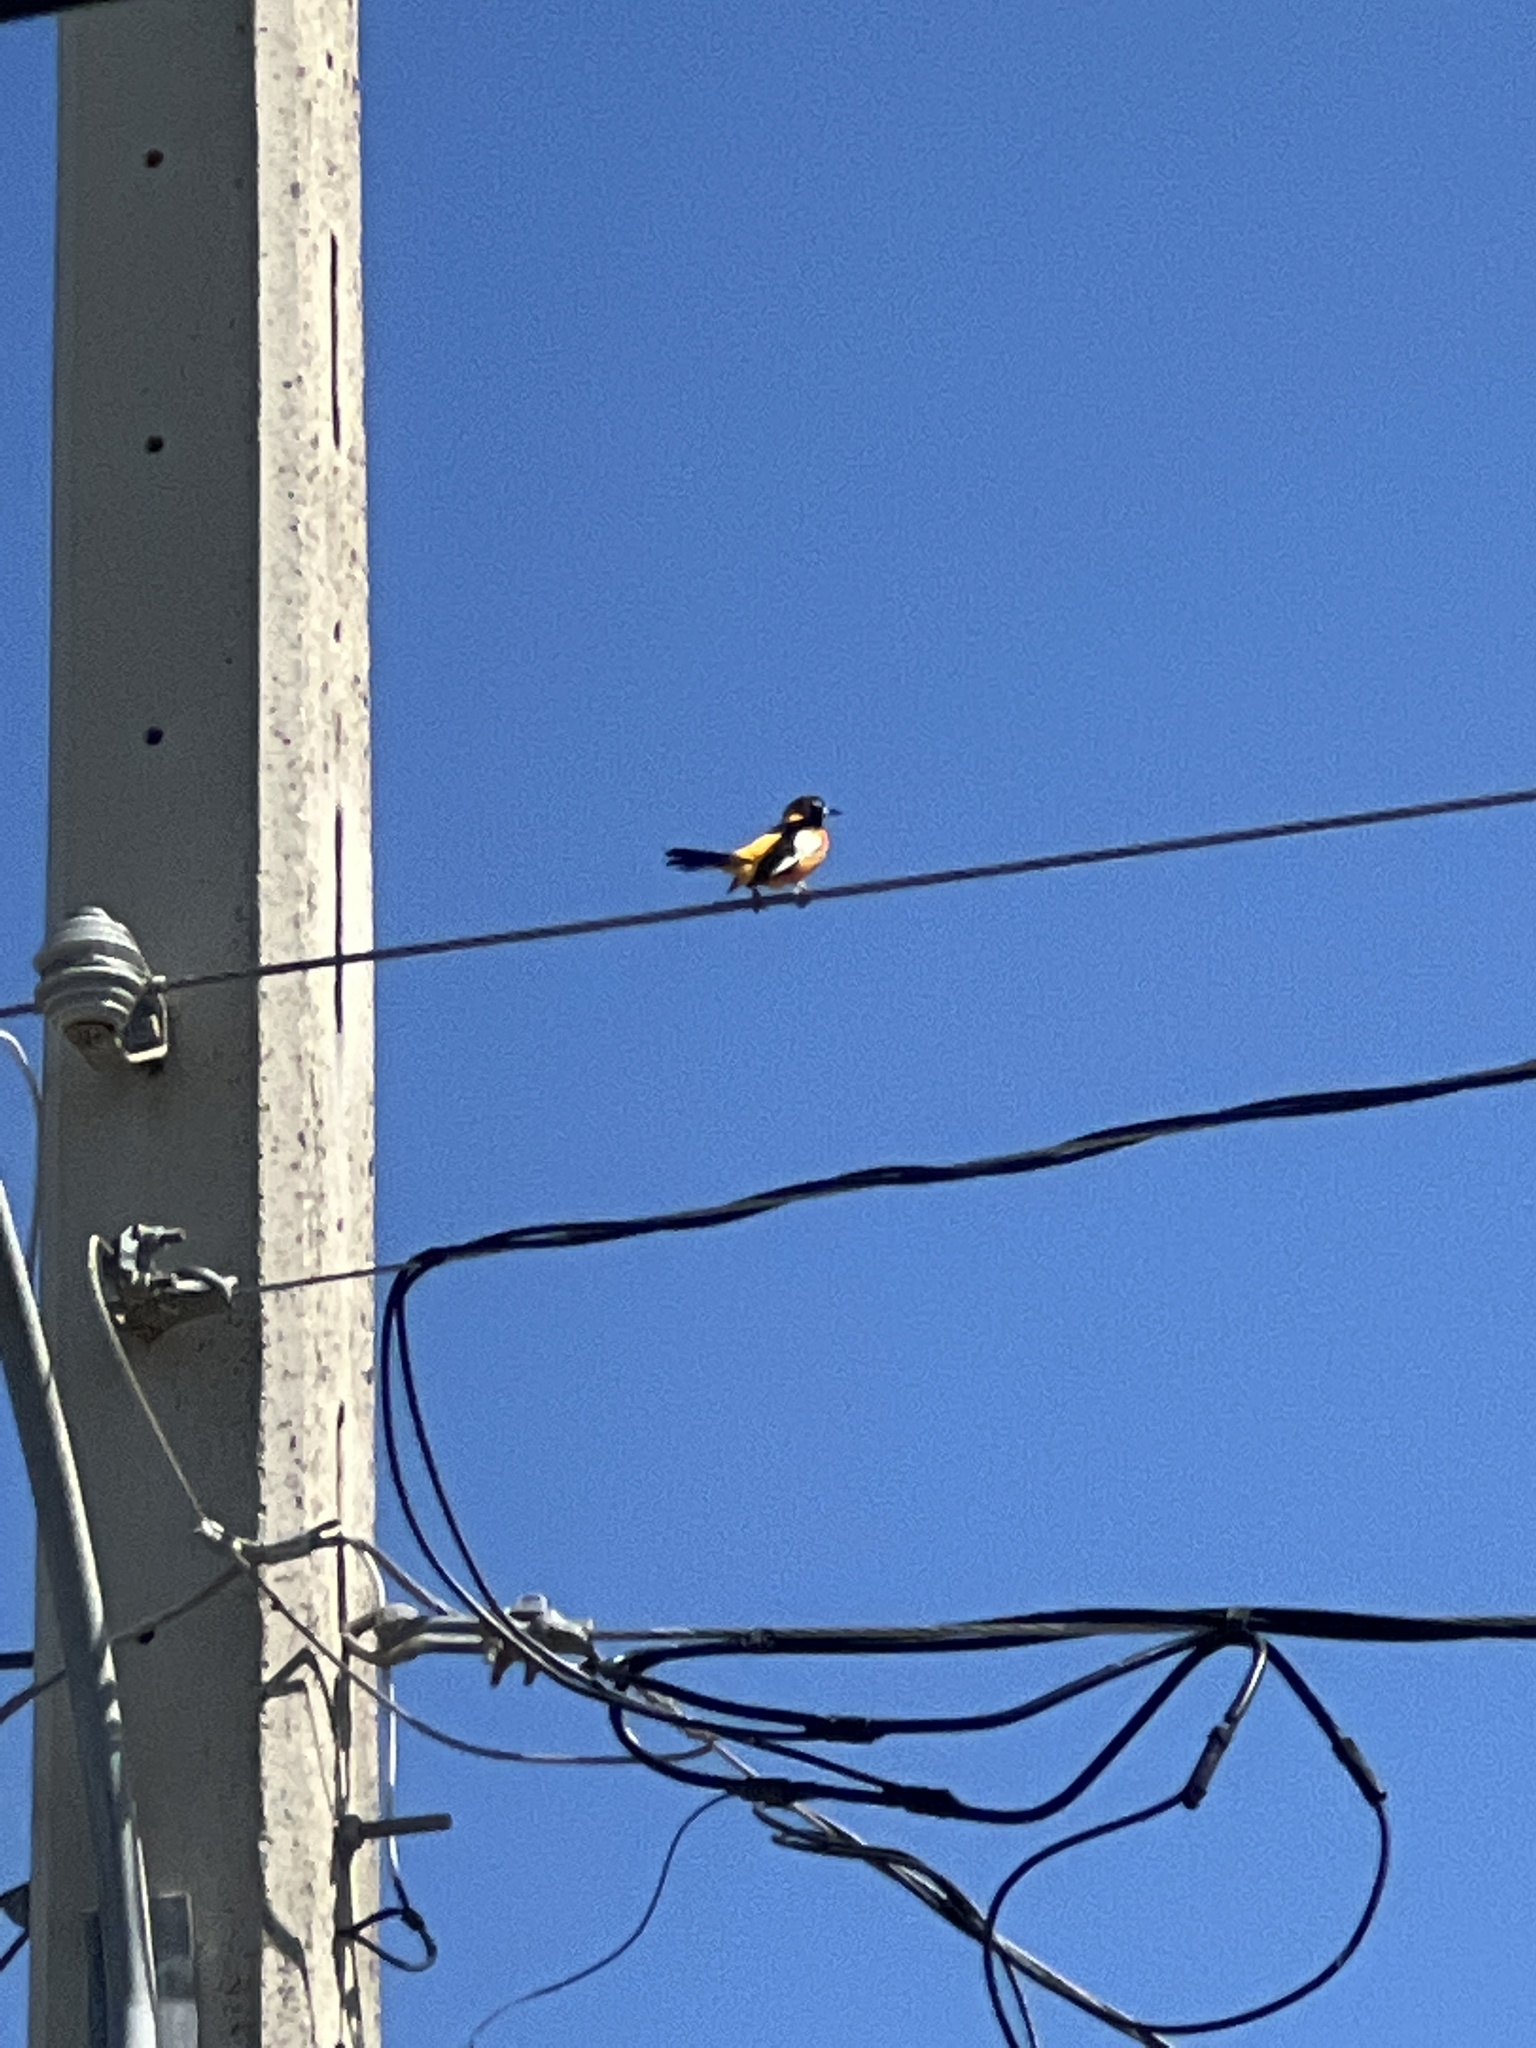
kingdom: Animalia
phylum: Chordata
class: Aves
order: Passeriformes
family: Icteridae
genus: Icterus
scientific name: Icterus icterus
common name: Venezuelan troupial
